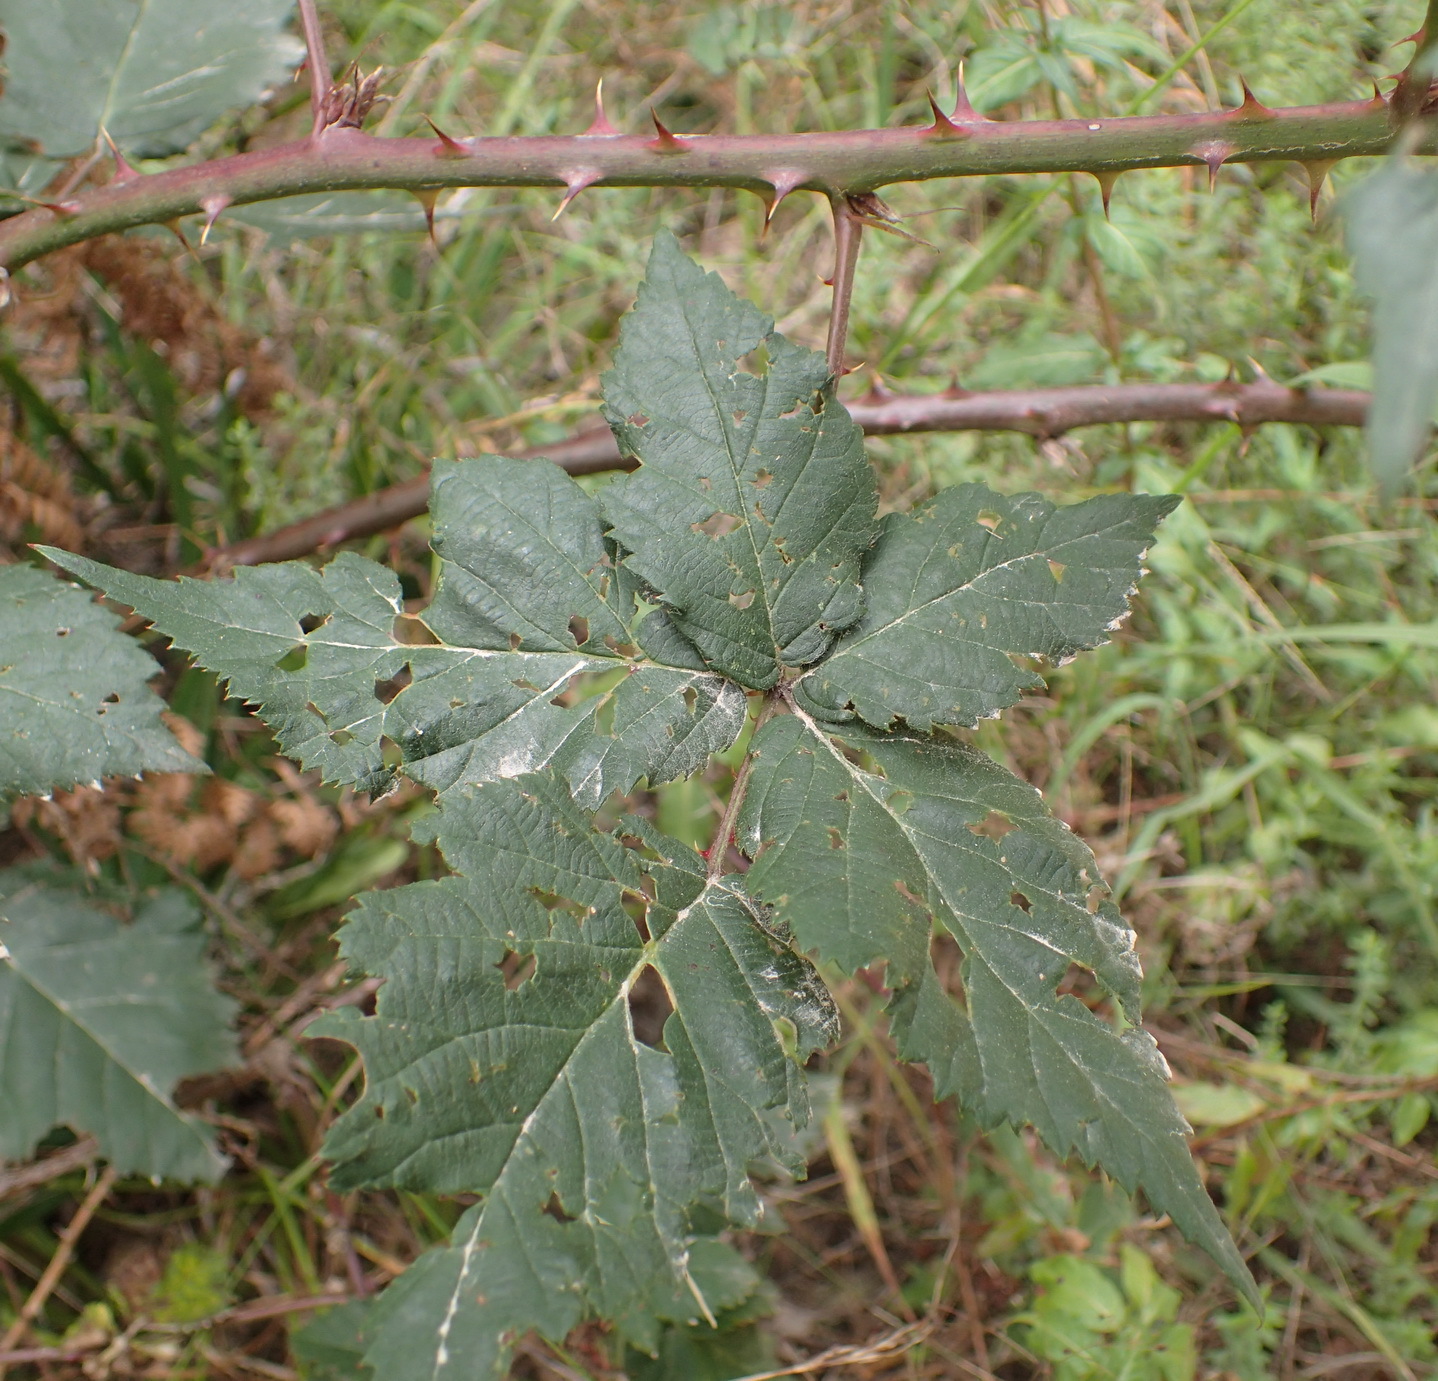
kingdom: Plantae
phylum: Tracheophyta
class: Magnoliopsida
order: Rosales
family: Rosaceae
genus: Rubus
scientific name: Rubus affinis
